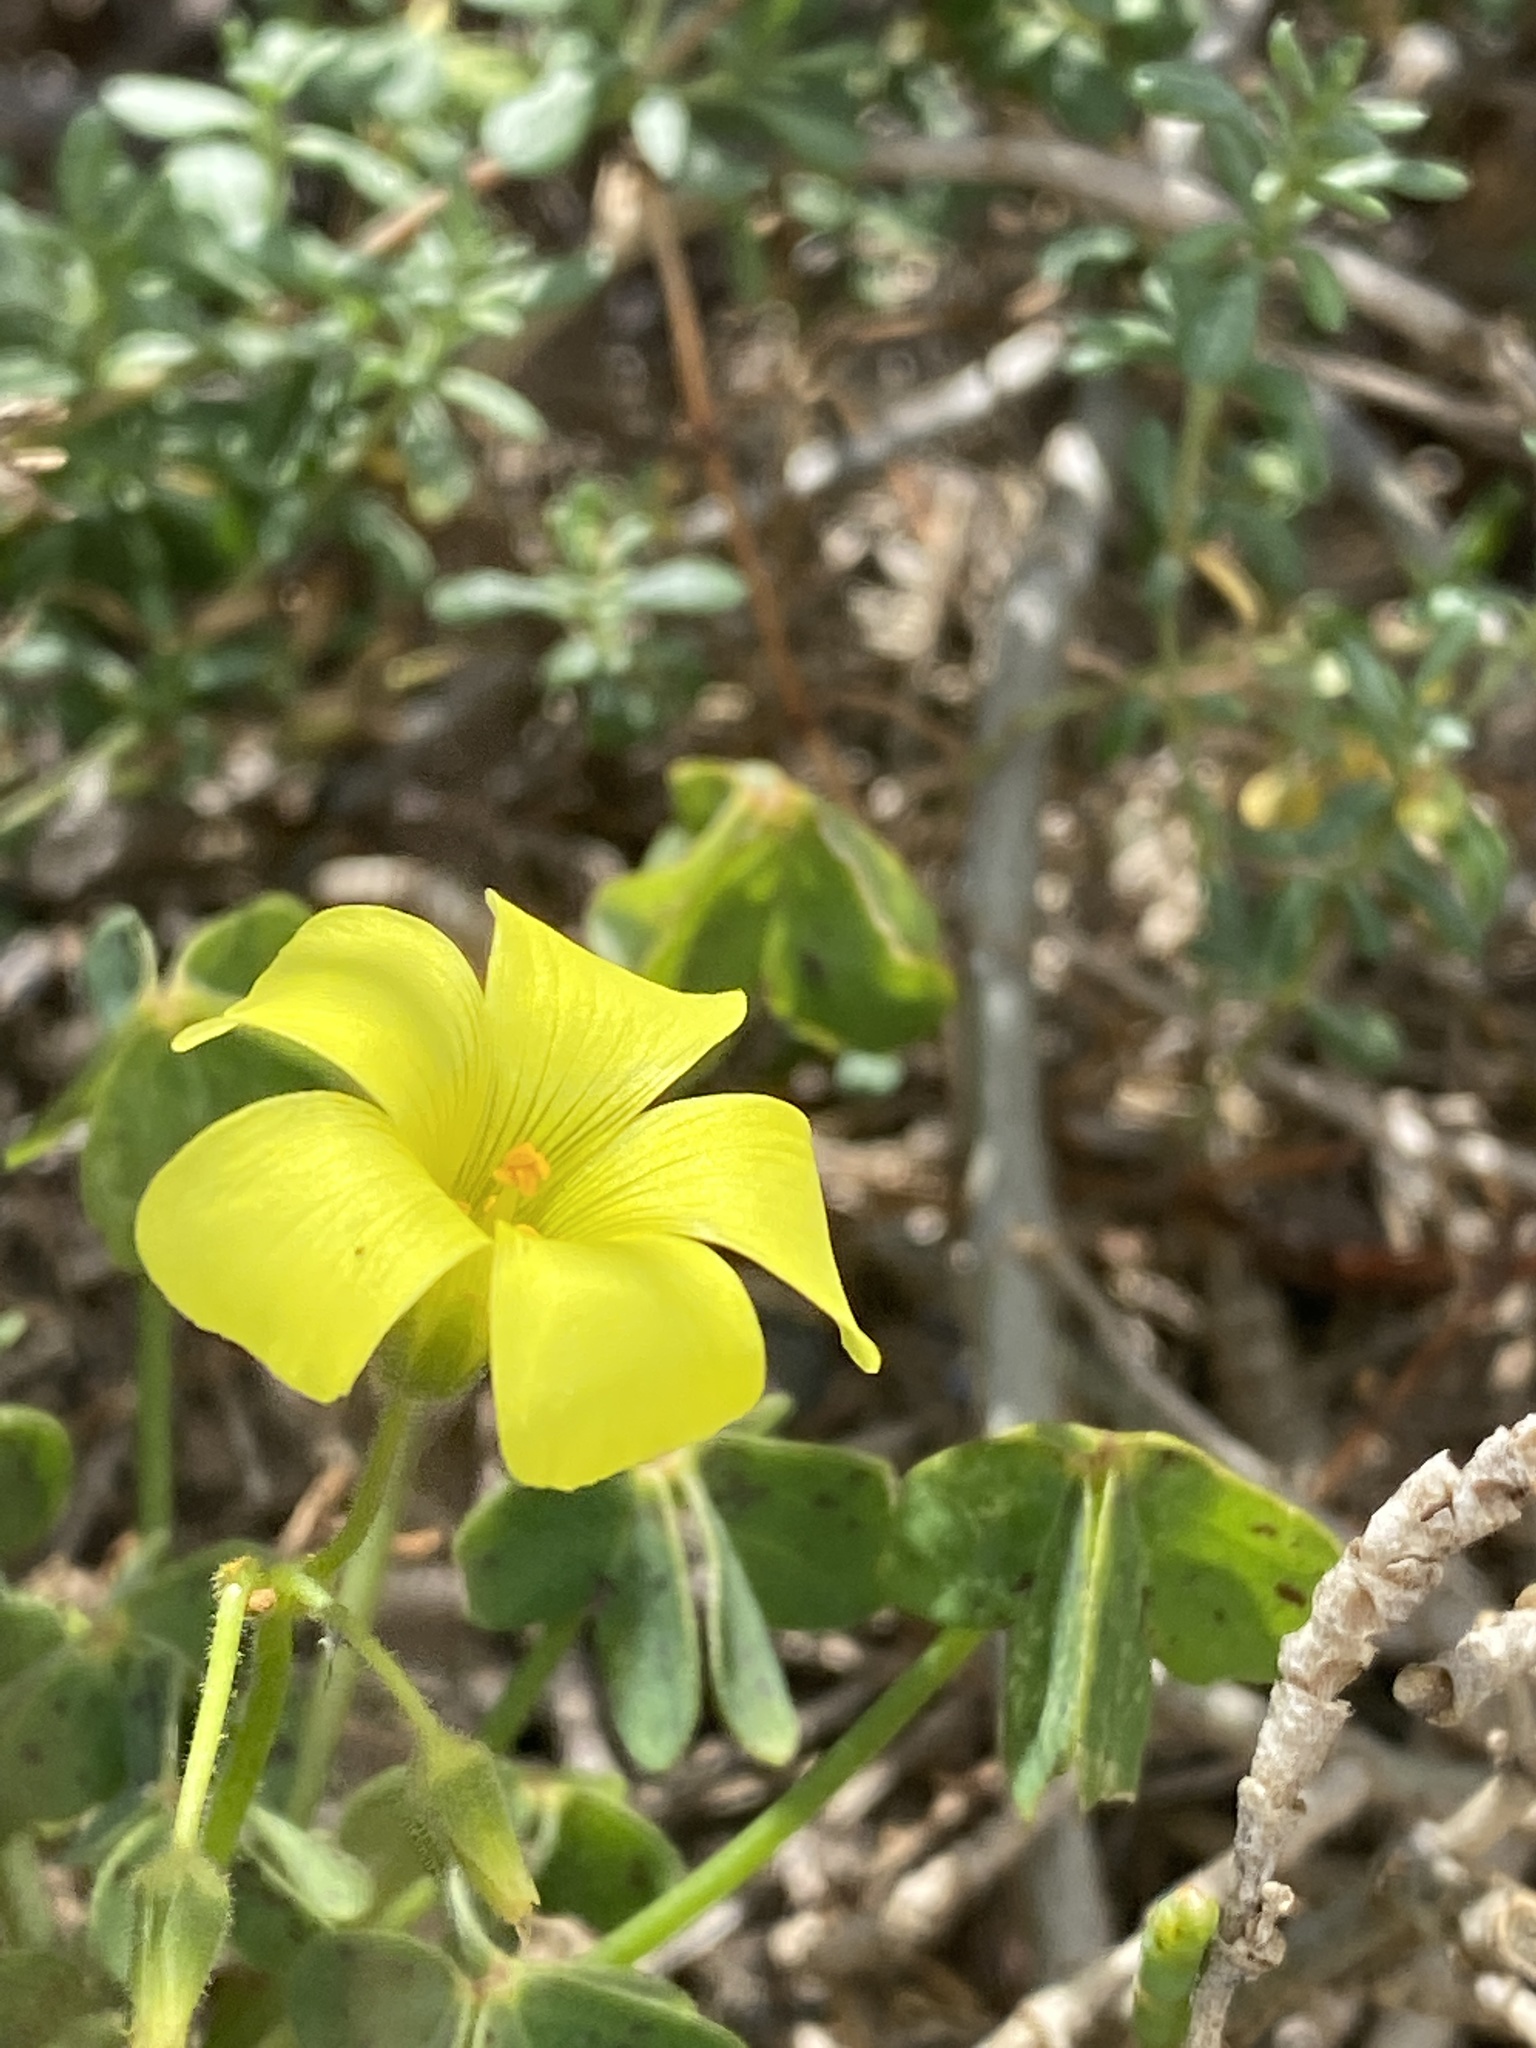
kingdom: Plantae
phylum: Tracheophyta
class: Magnoliopsida
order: Oxalidales
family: Oxalidaceae
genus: Oxalis
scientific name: Oxalis pes-caprae
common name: Bermuda-buttercup
